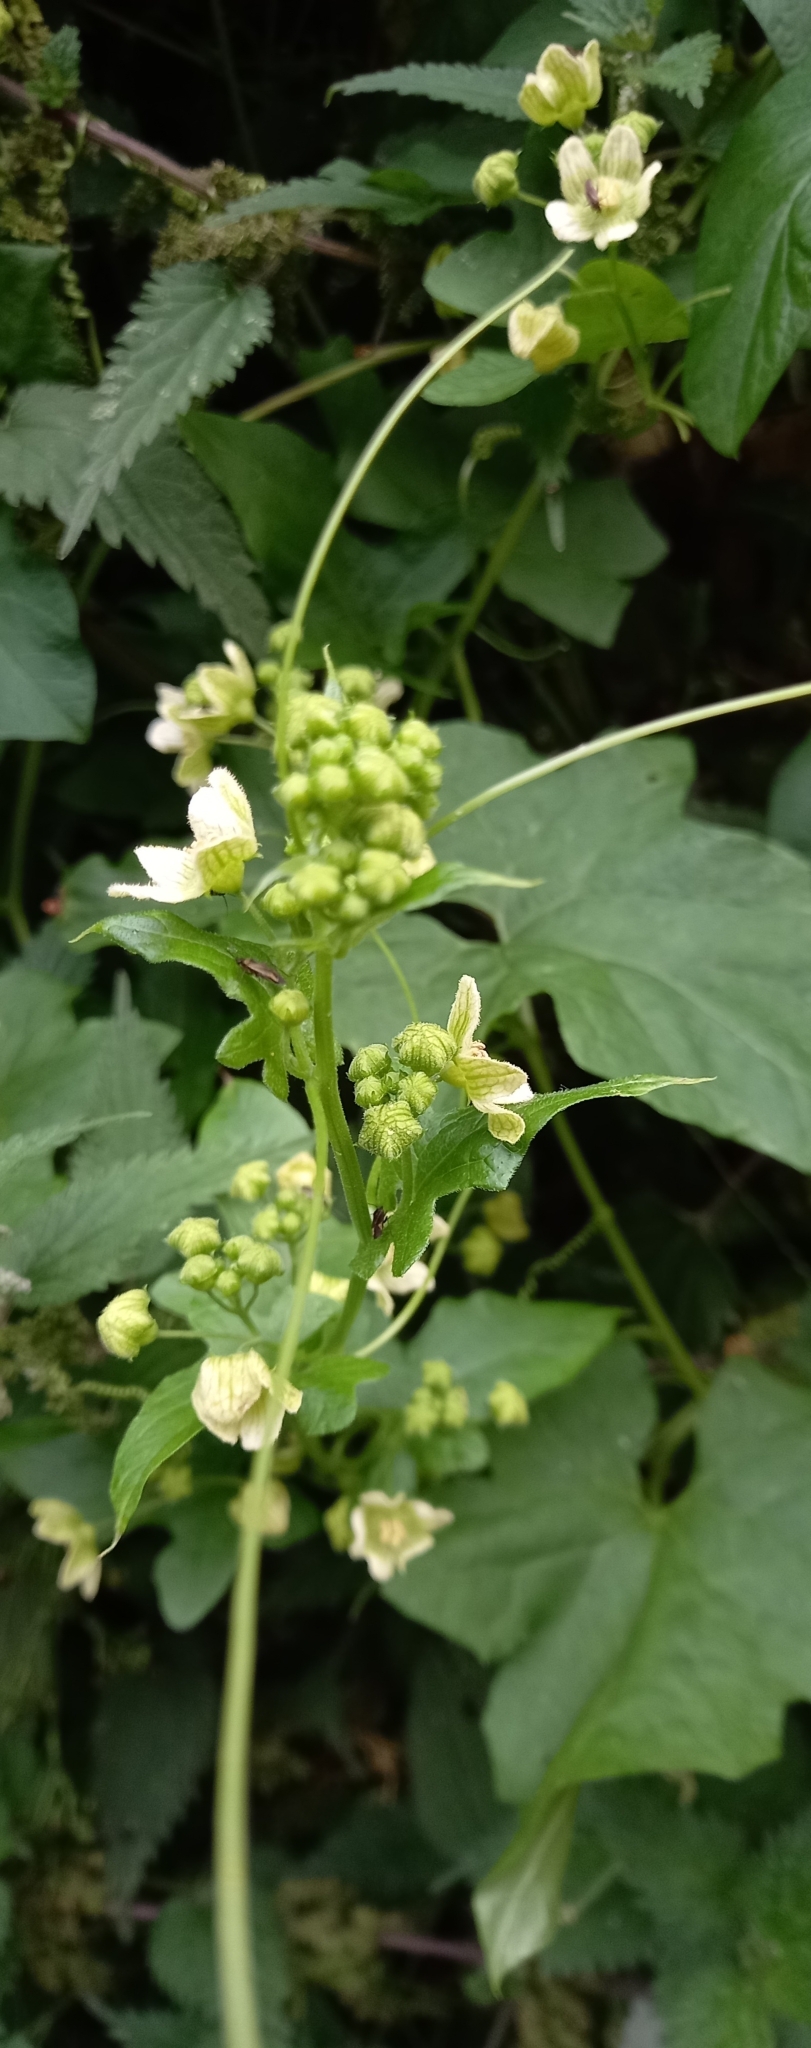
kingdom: Plantae
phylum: Tracheophyta
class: Magnoliopsida
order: Cucurbitales
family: Cucurbitaceae
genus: Bryonia
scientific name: Bryonia cretica
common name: Cretan bryony
